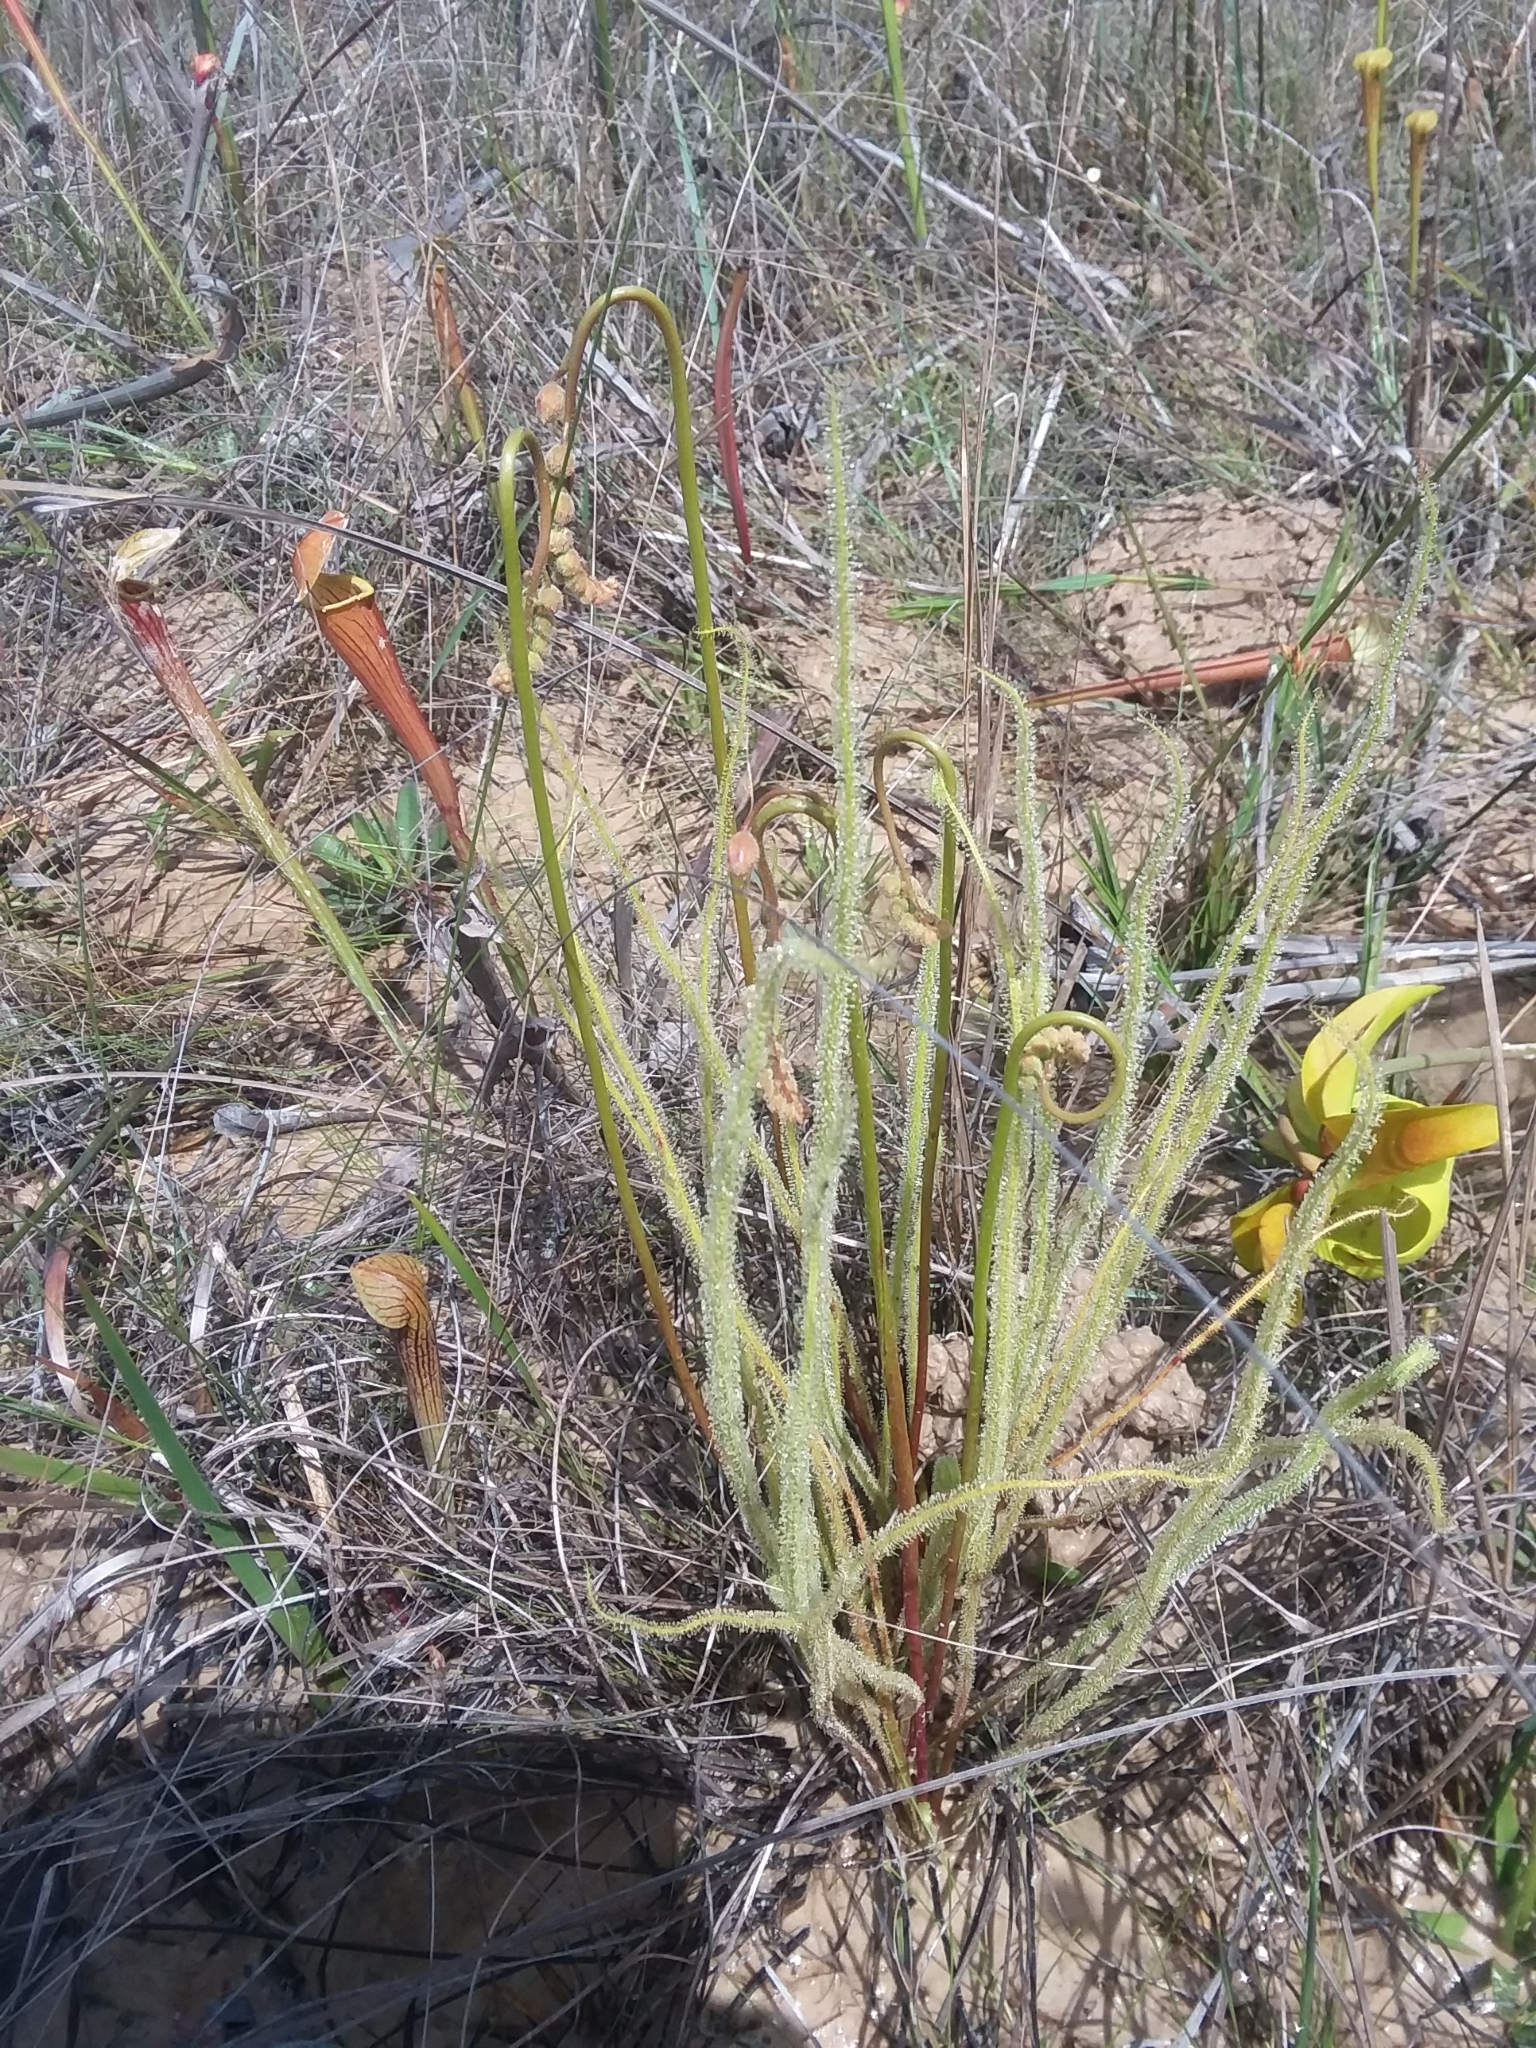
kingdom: Plantae
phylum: Tracheophyta
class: Magnoliopsida
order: Caryophyllales
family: Droseraceae
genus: Drosera
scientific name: Drosera filiformis
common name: Dew-thread
